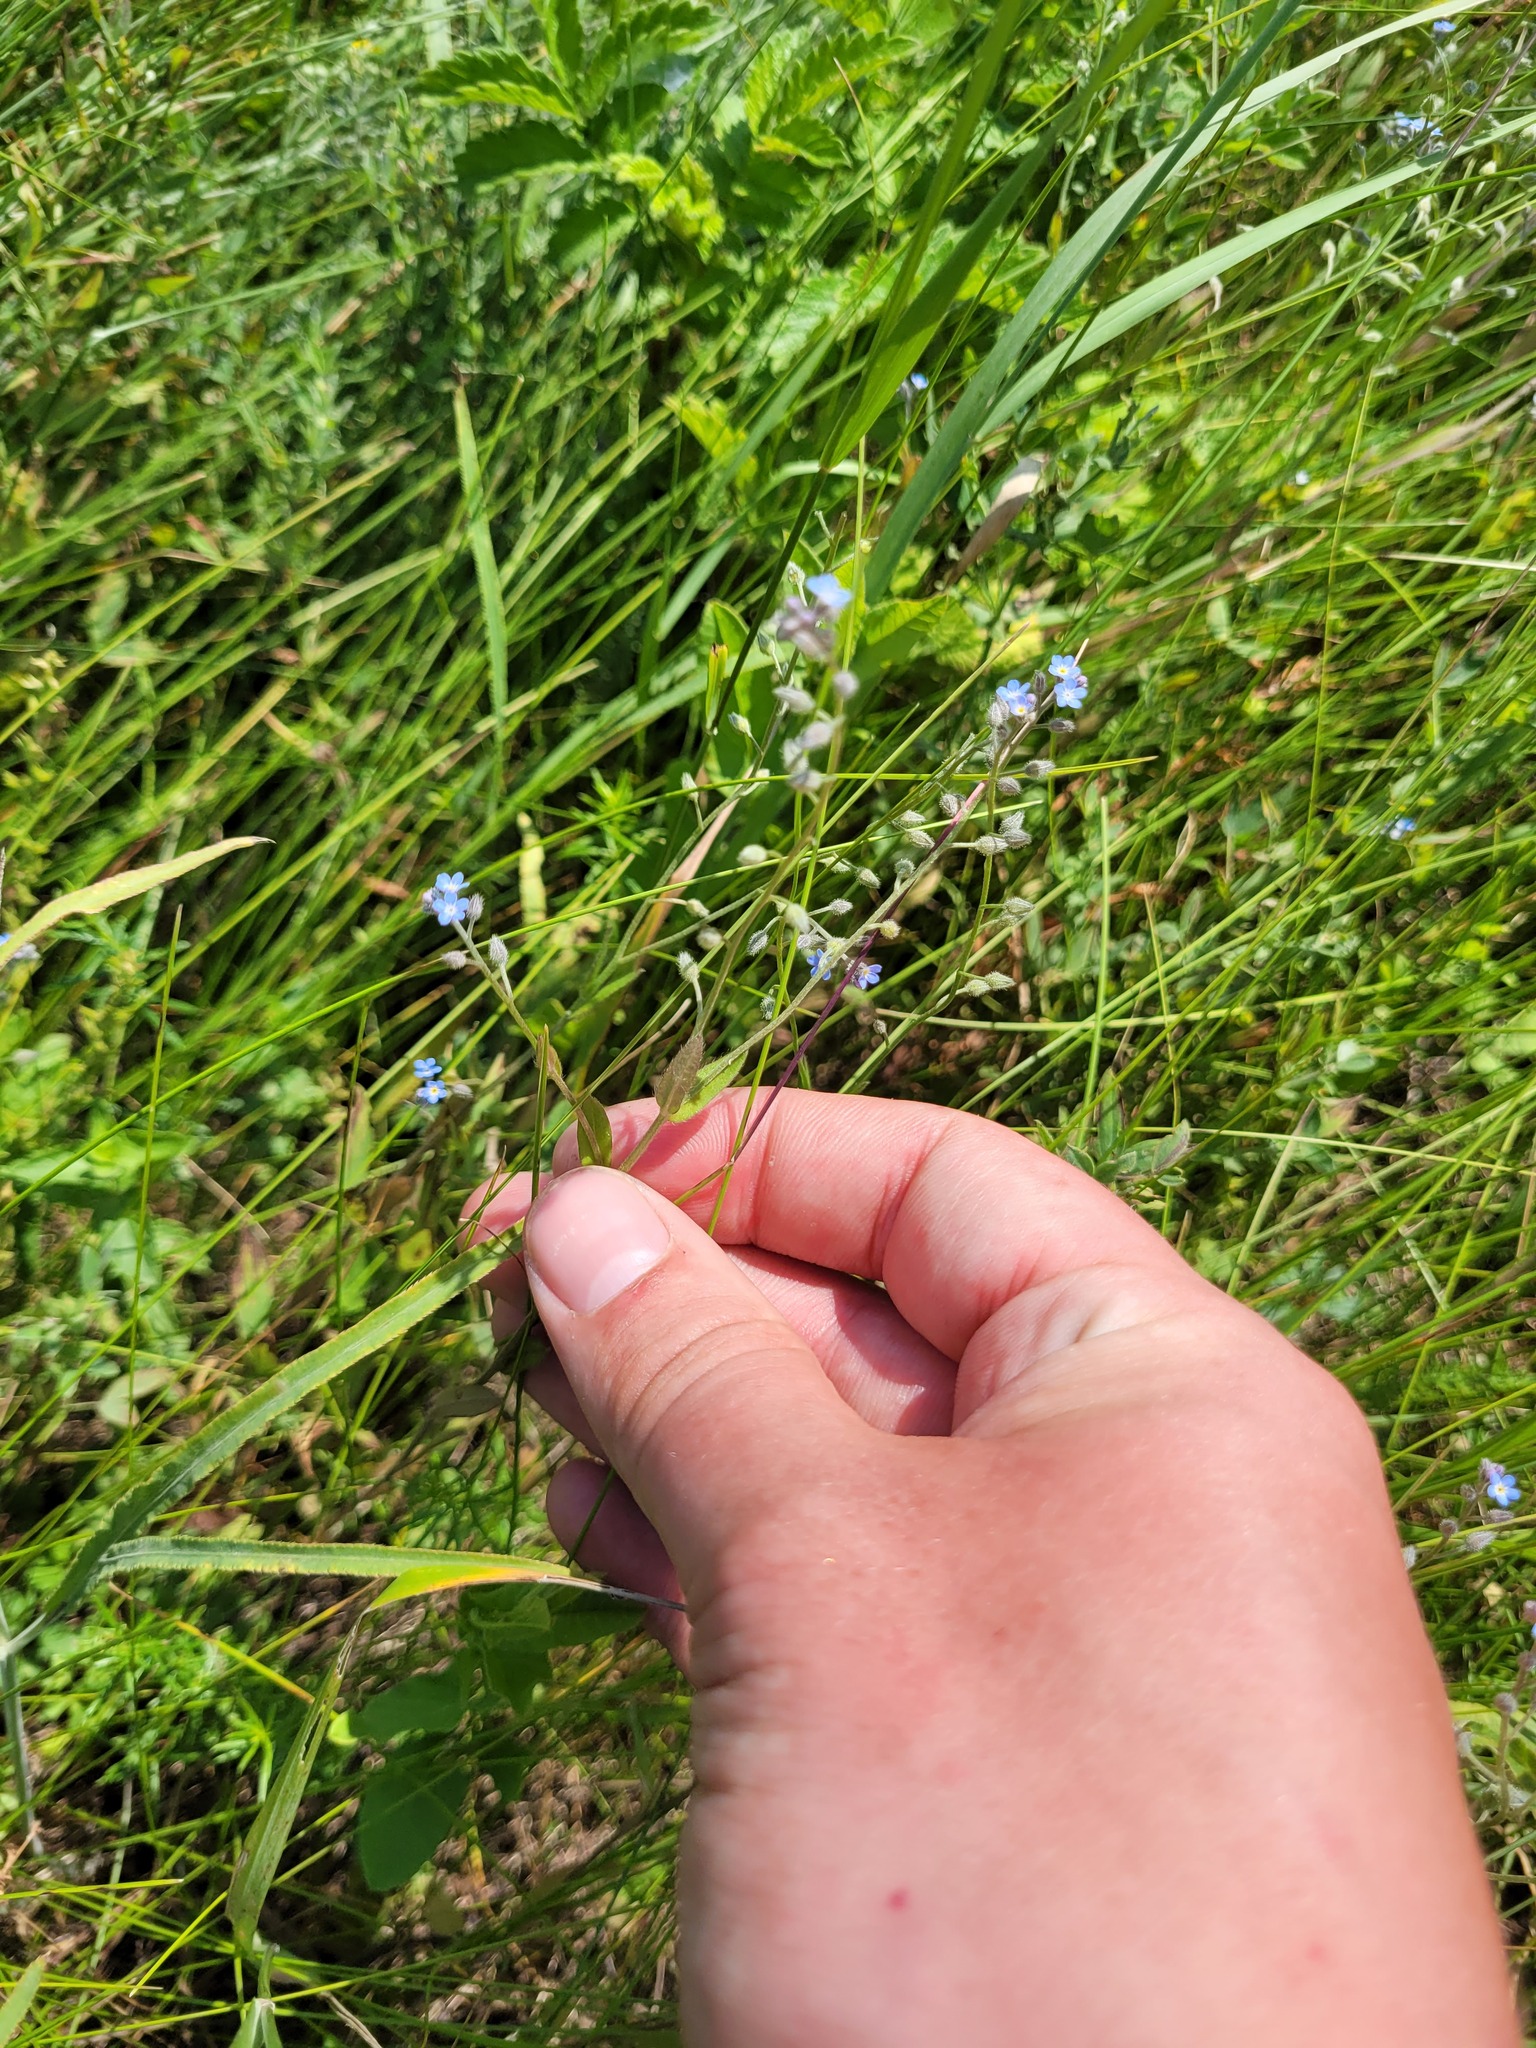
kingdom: Plantae
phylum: Tracheophyta
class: Magnoliopsida
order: Boraginales
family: Boraginaceae
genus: Myosotis
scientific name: Myosotis arvensis
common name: Field forget-me-not
